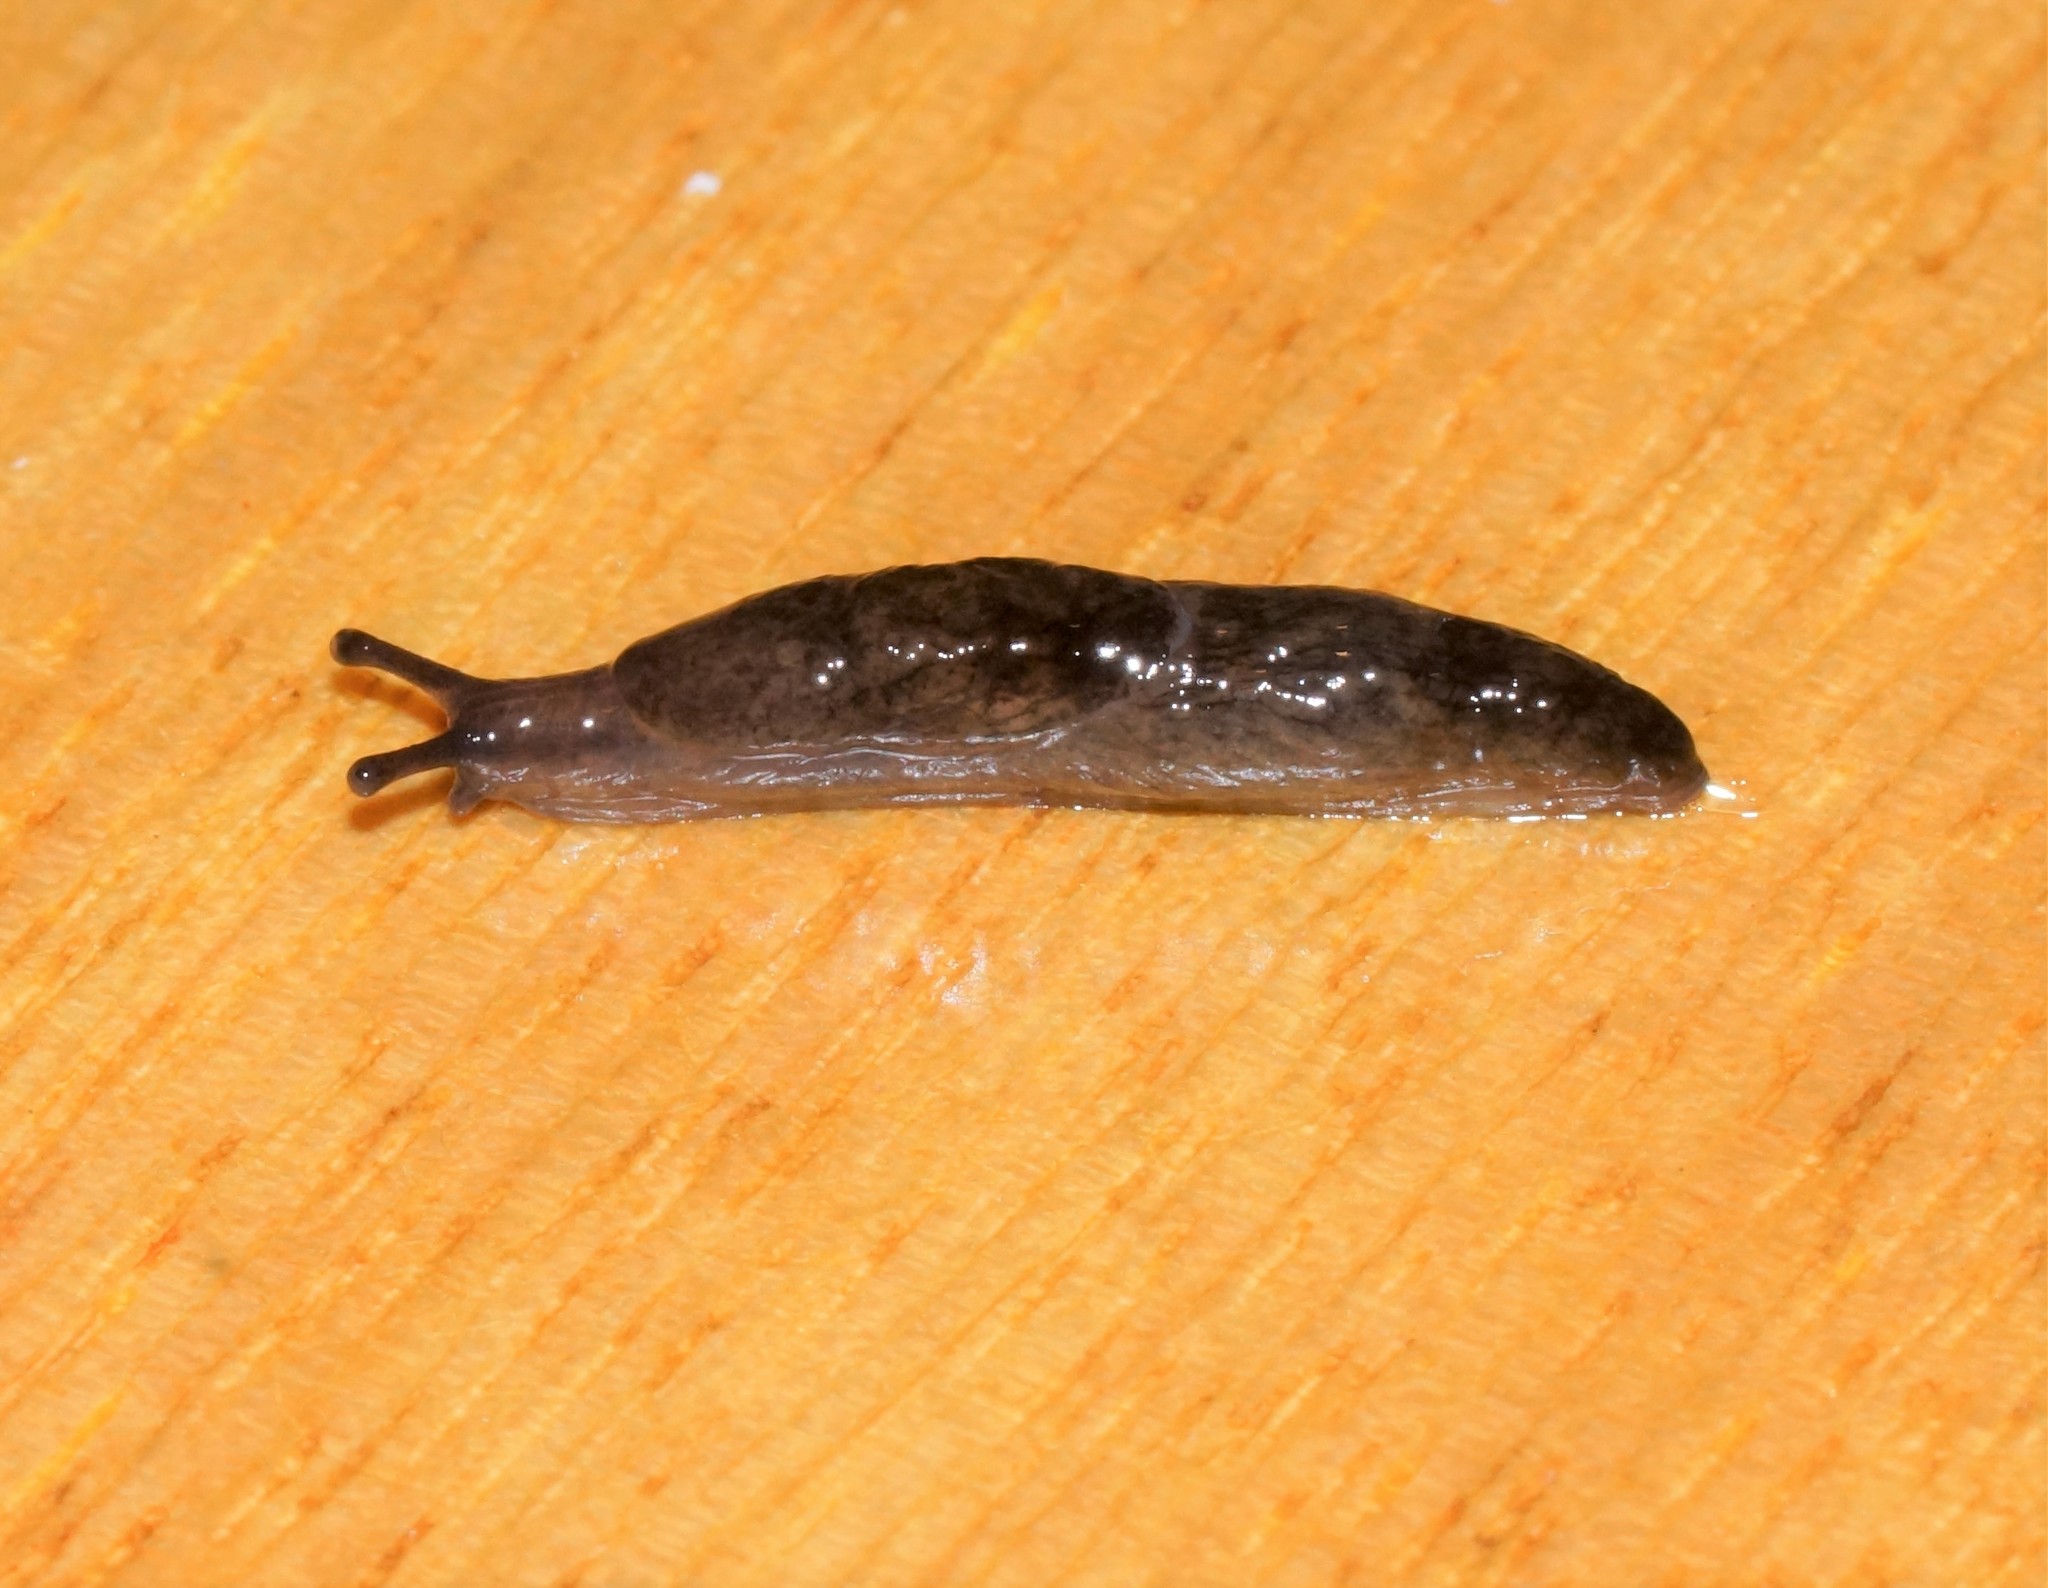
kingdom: Animalia
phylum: Mollusca
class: Gastropoda
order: Stylommatophora
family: Agriolimacidae
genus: Deroceras
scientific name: Deroceras reticulatum
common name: Gray field slug
